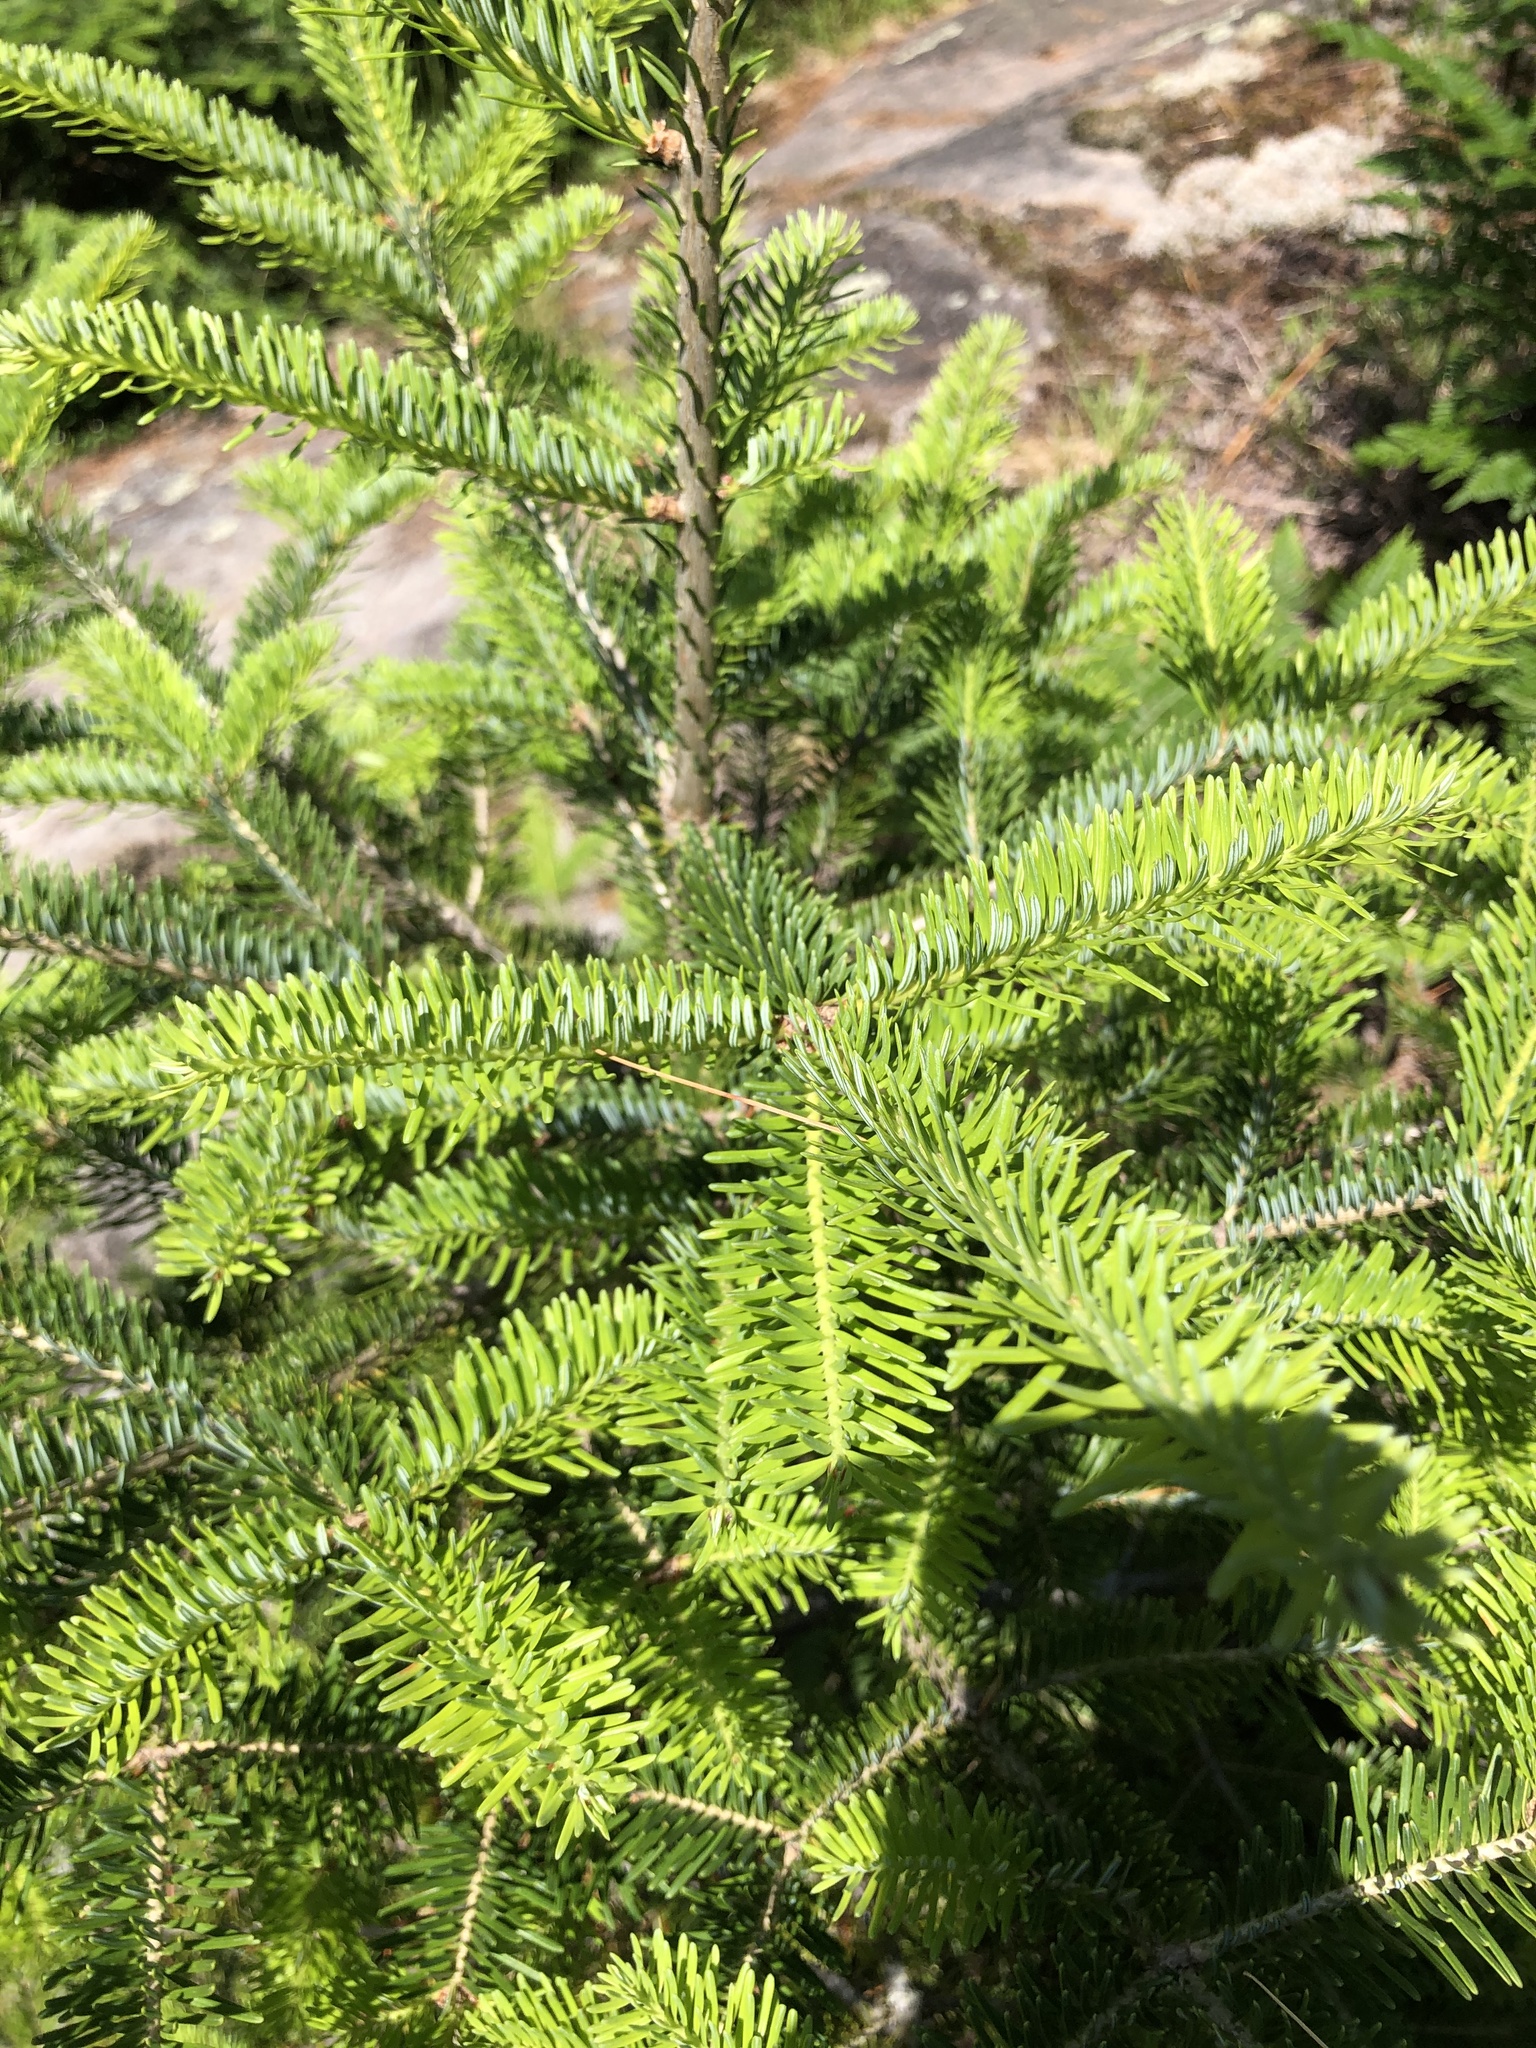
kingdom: Plantae
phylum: Tracheophyta
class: Pinopsida
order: Pinales
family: Pinaceae
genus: Abies
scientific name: Abies balsamea
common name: Balsam fir
